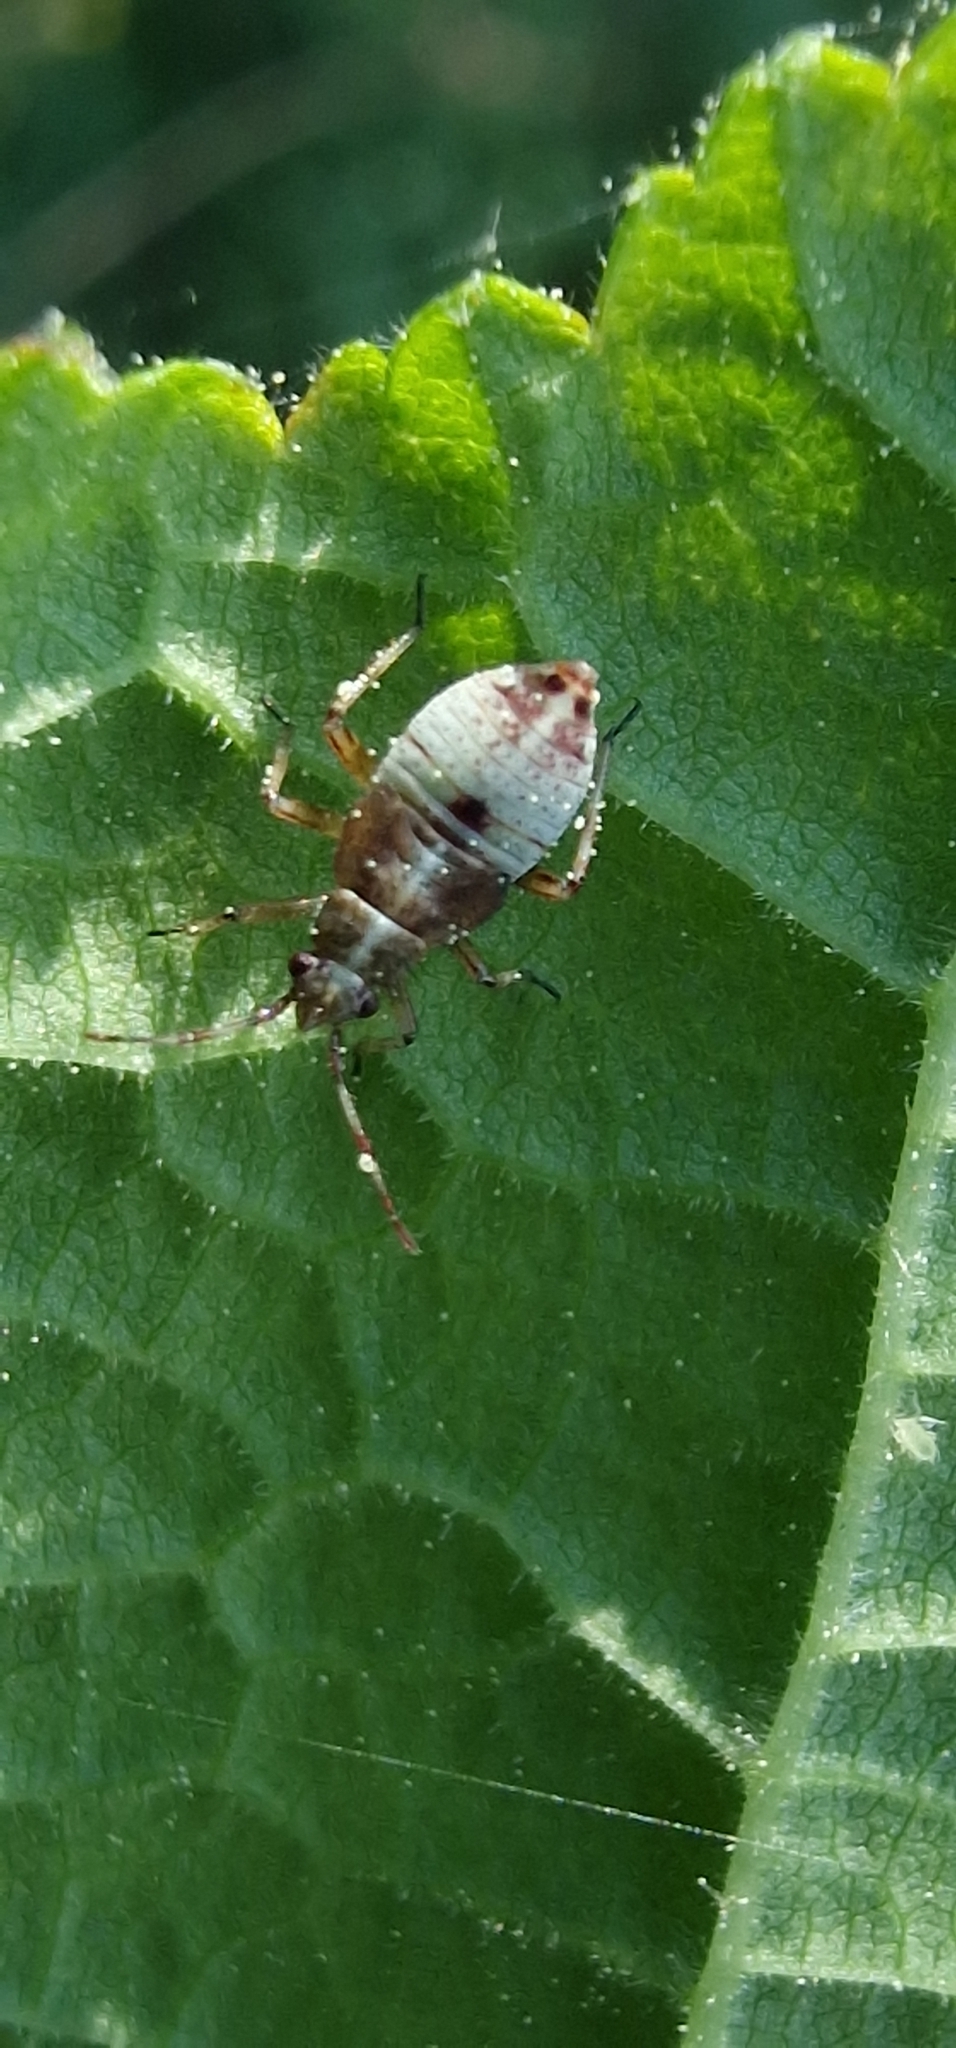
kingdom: Animalia
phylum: Arthropoda
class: Insecta
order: Hemiptera
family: Miridae
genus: Deraeocoris
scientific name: Deraeocoris flavilinea
